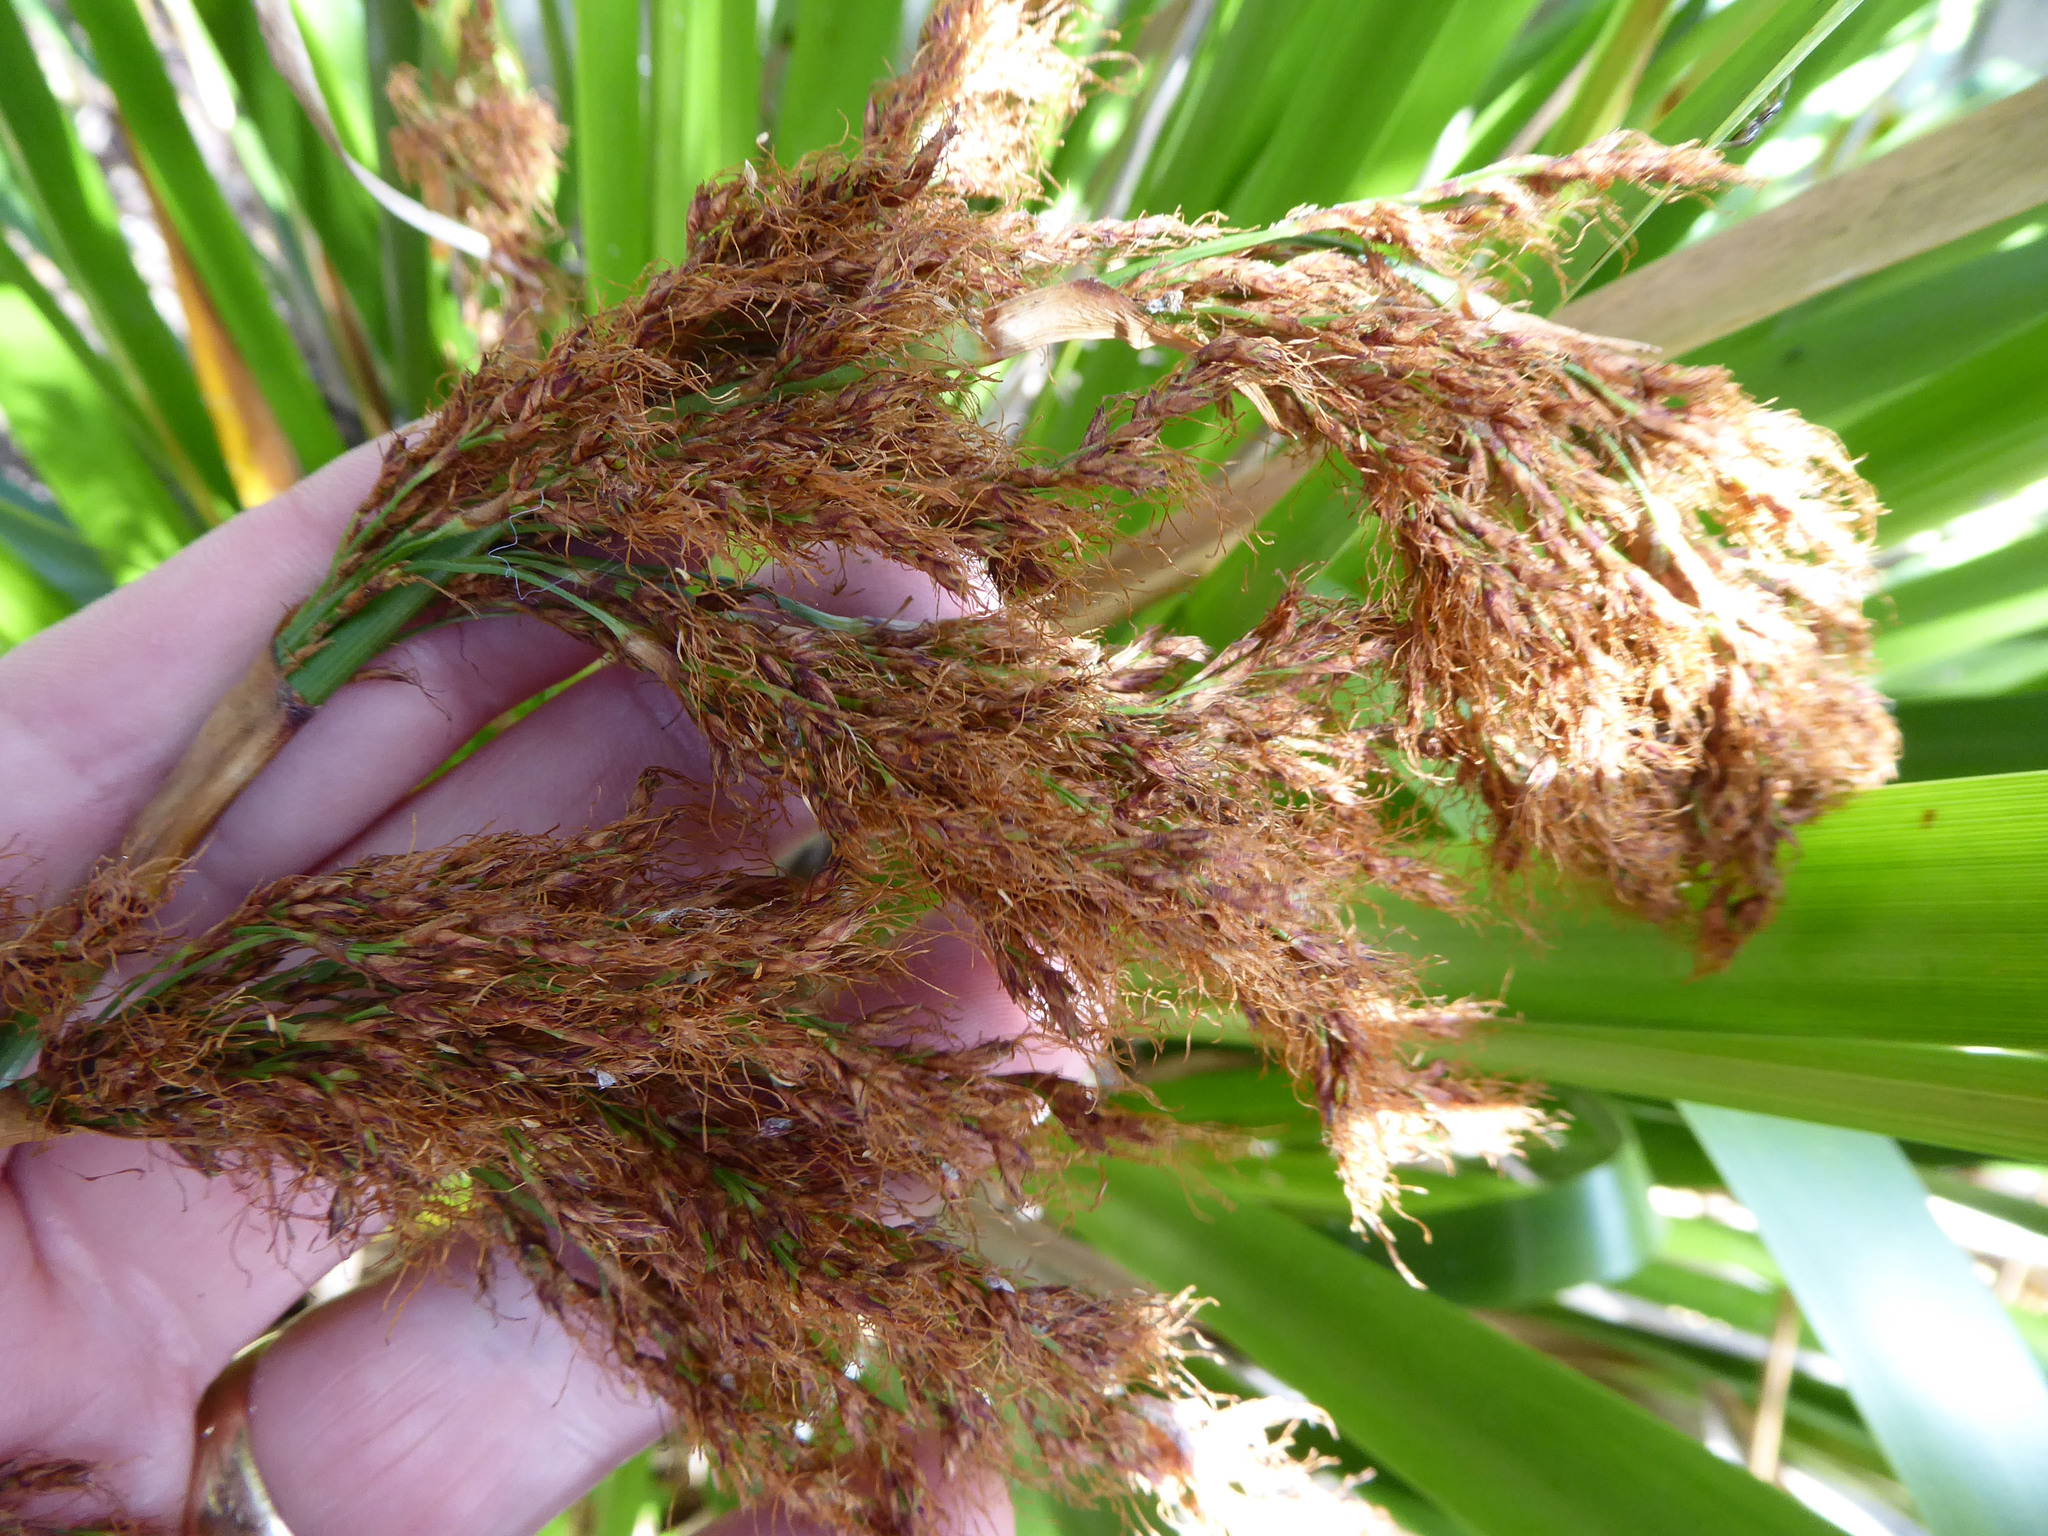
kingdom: Plantae
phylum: Tracheophyta
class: Liliopsida
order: Poales
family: Cyperaceae
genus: Machaerina
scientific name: Machaerina sinclairii
